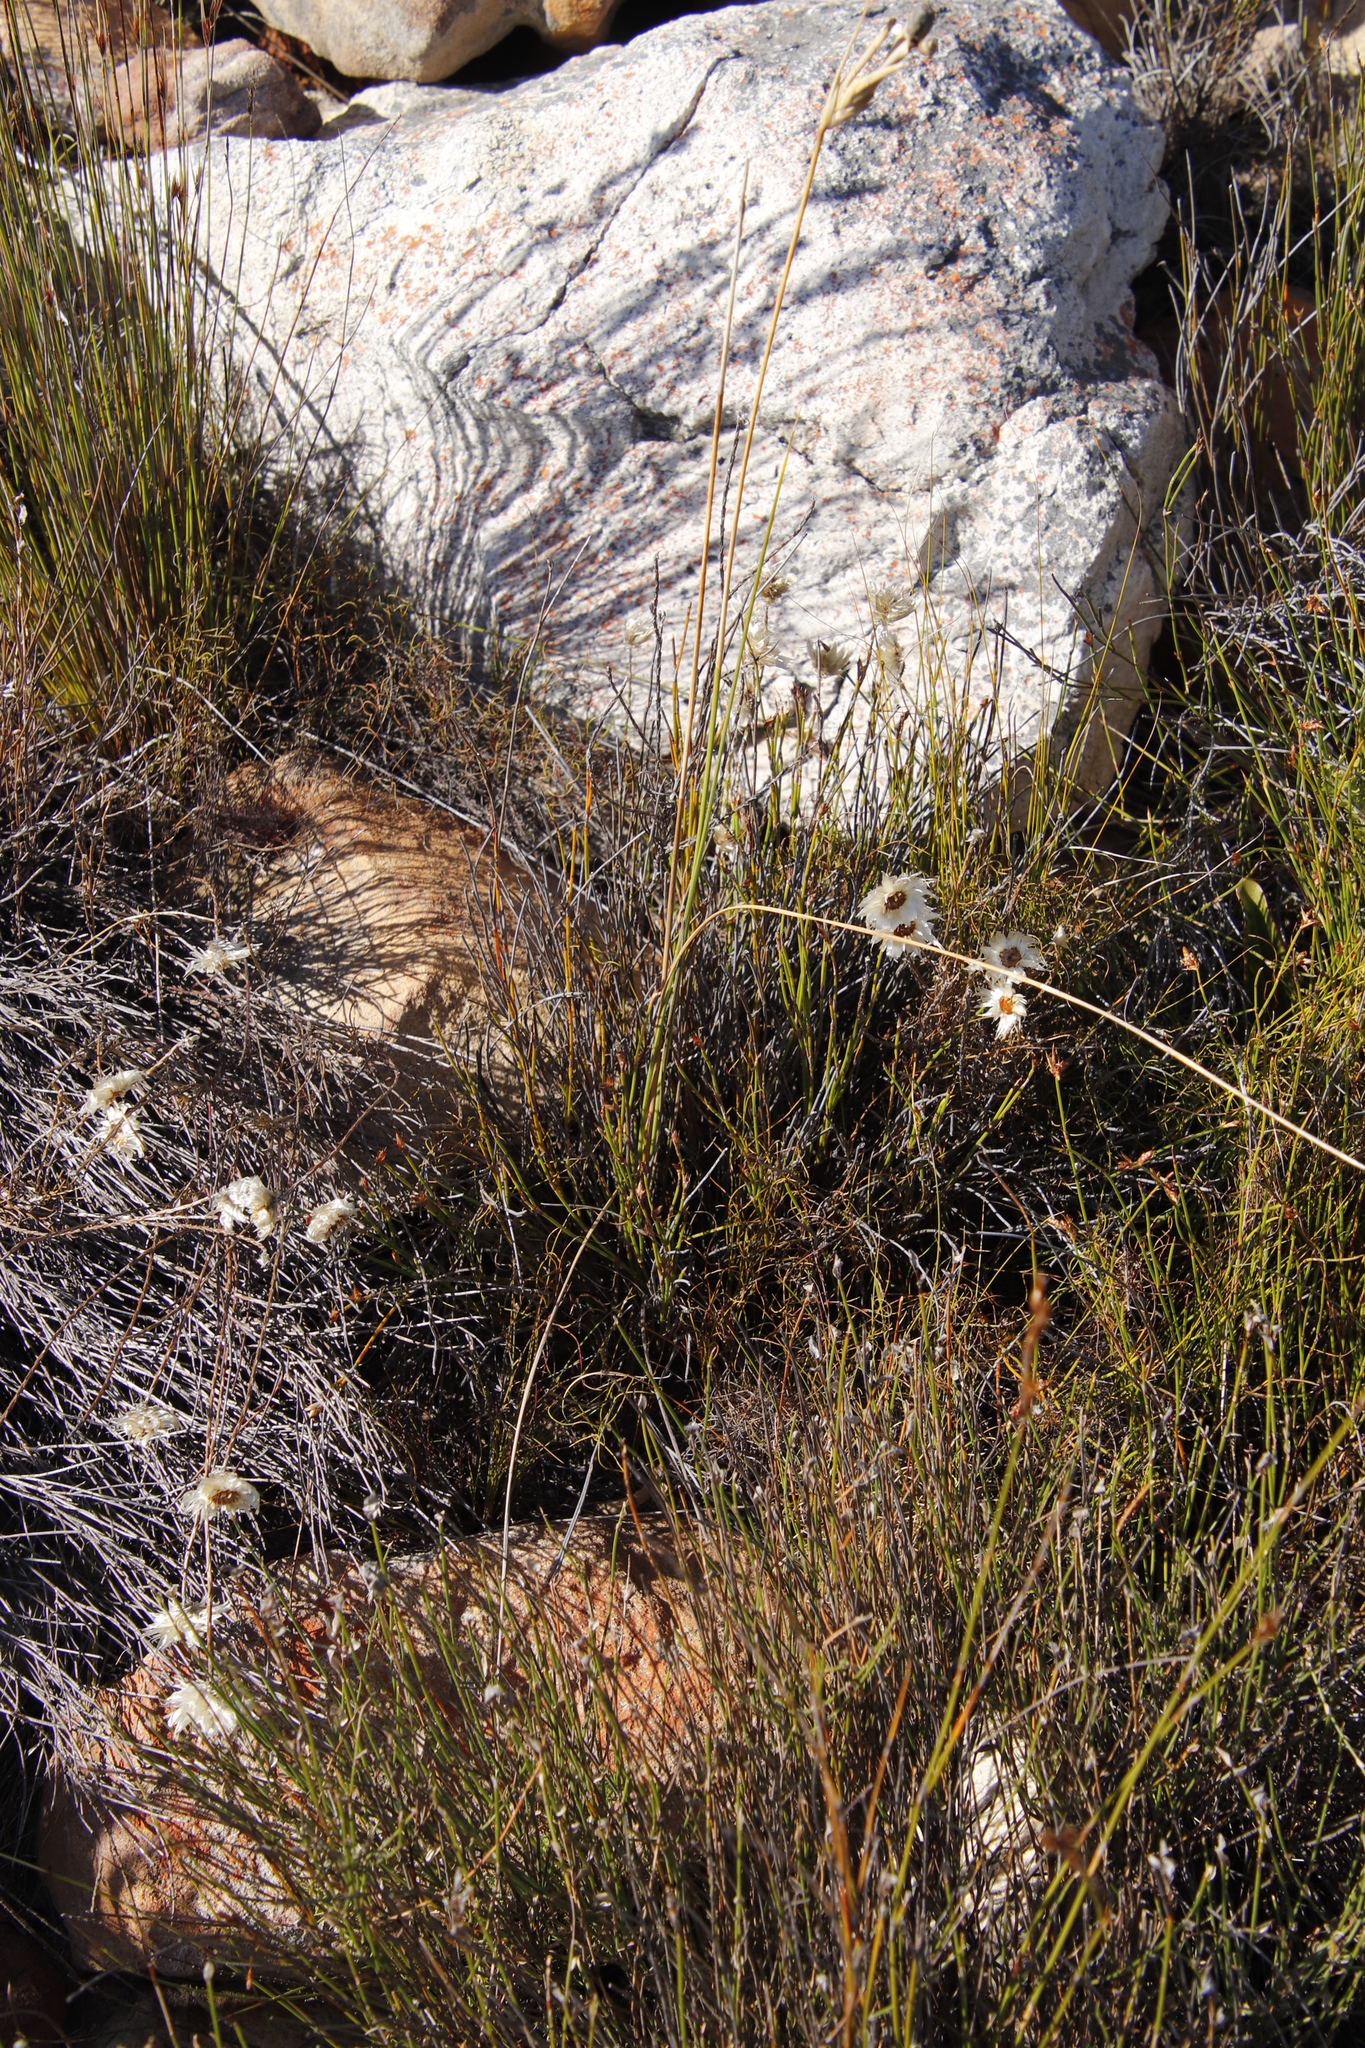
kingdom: Plantae
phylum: Tracheophyta
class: Liliopsida
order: Asparagales
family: Iridaceae
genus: Bobartia
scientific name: Bobartia filiformis
